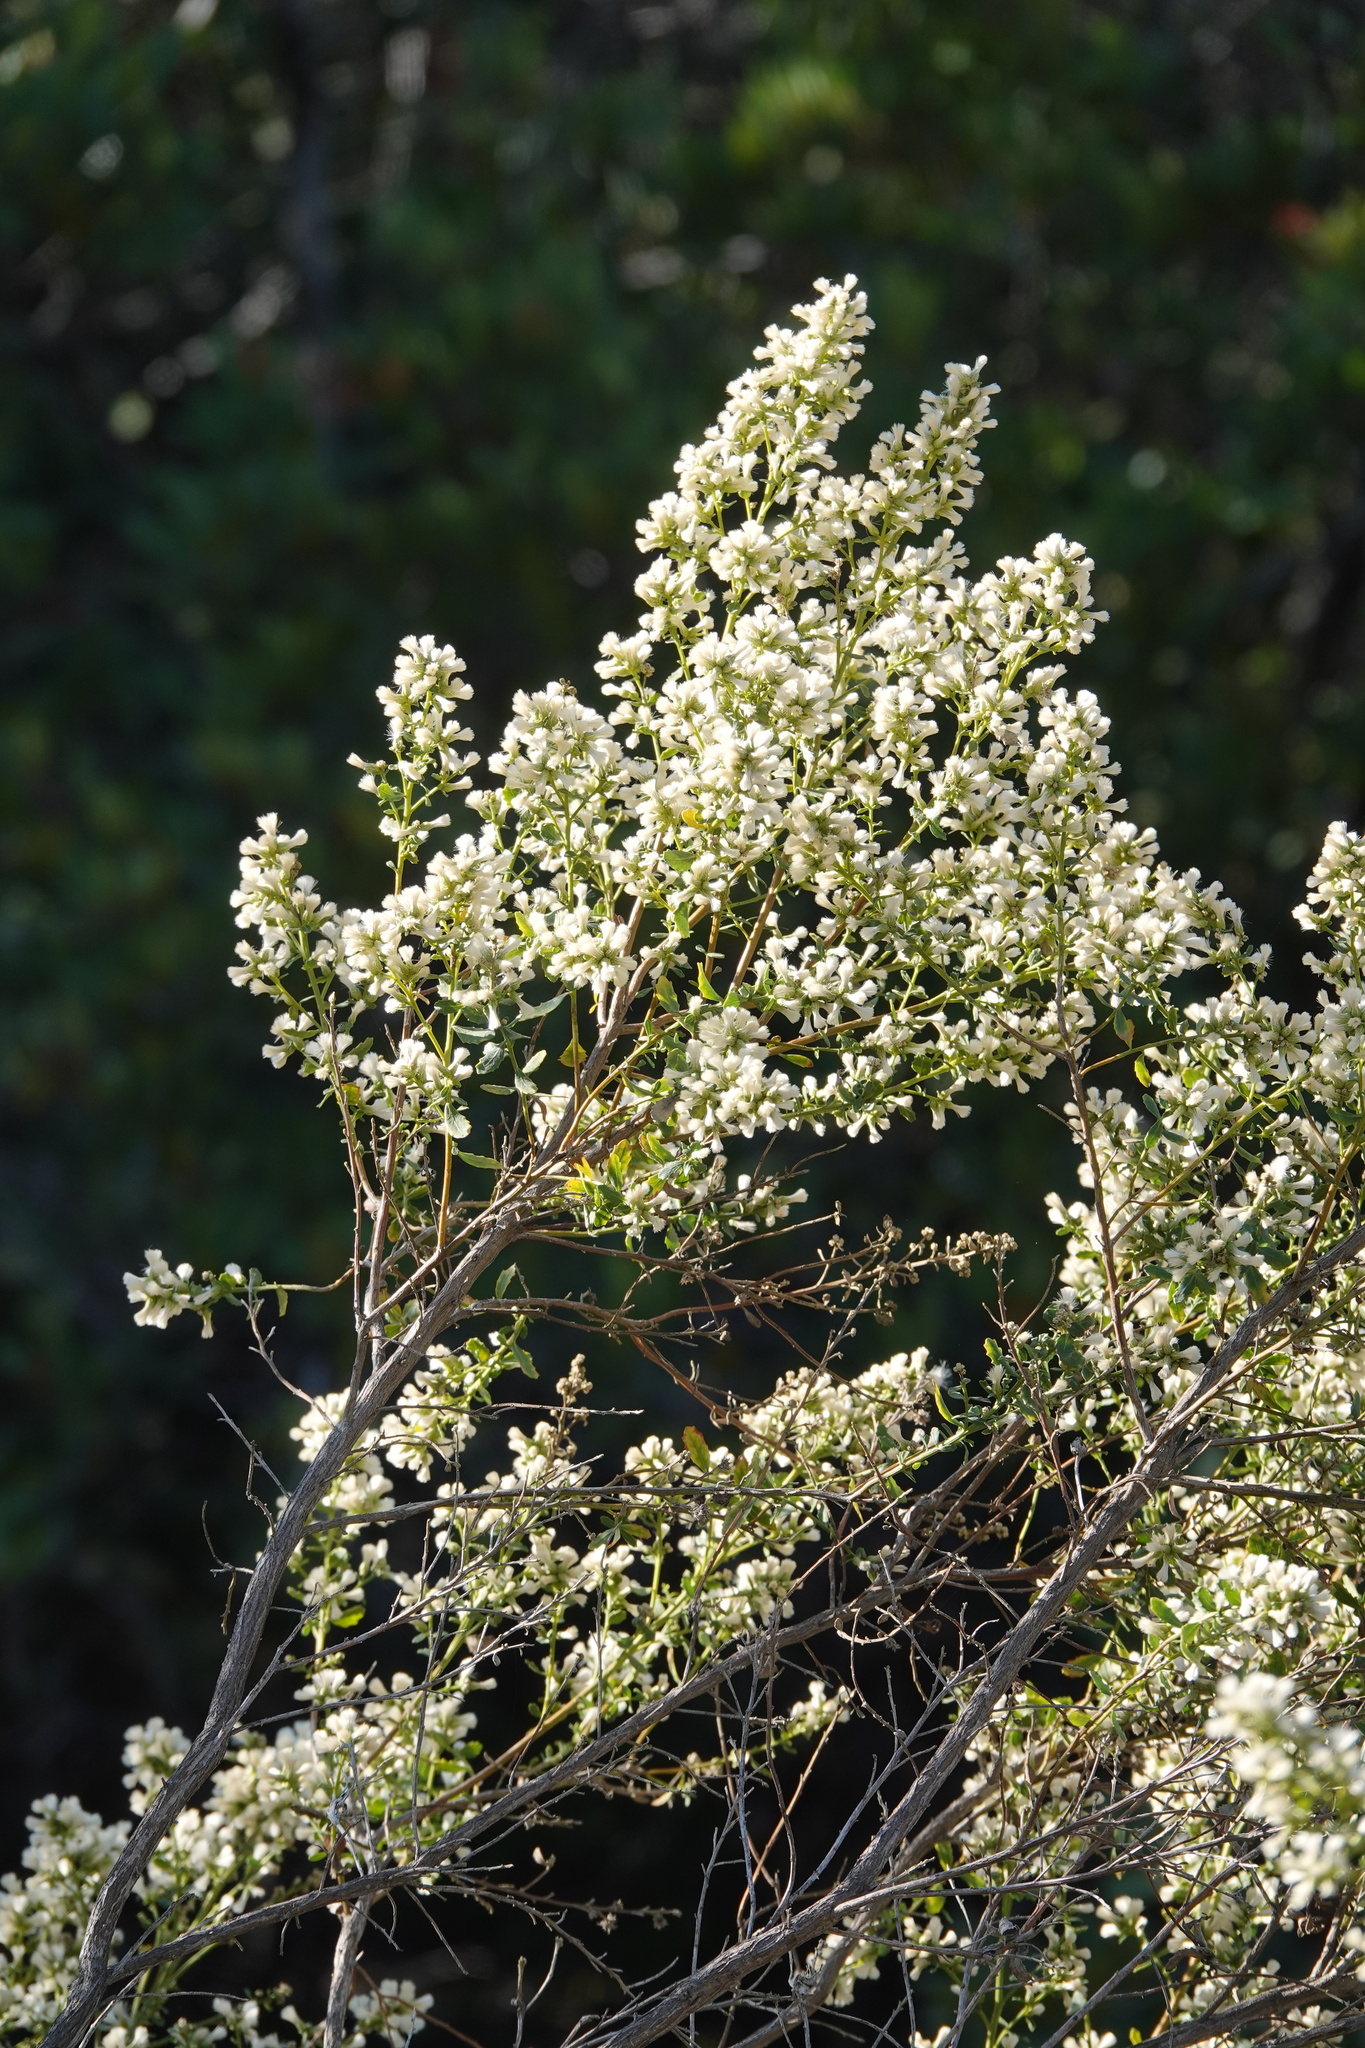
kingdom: Plantae
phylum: Tracheophyta
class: Magnoliopsida
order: Asterales
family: Asteraceae
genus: Baccharis
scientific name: Baccharis pilularis
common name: Coyotebrush
